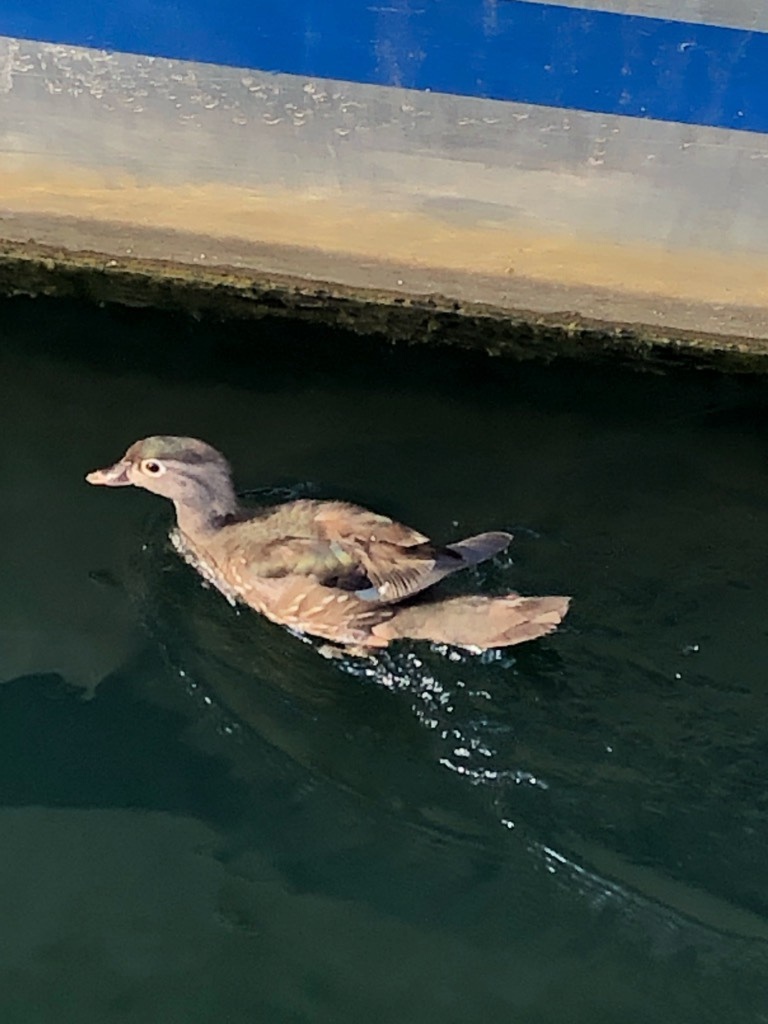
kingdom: Animalia
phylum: Chordata
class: Aves
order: Anseriformes
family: Anatidae
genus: Aix
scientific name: Aix sponsa
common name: Wood duck
